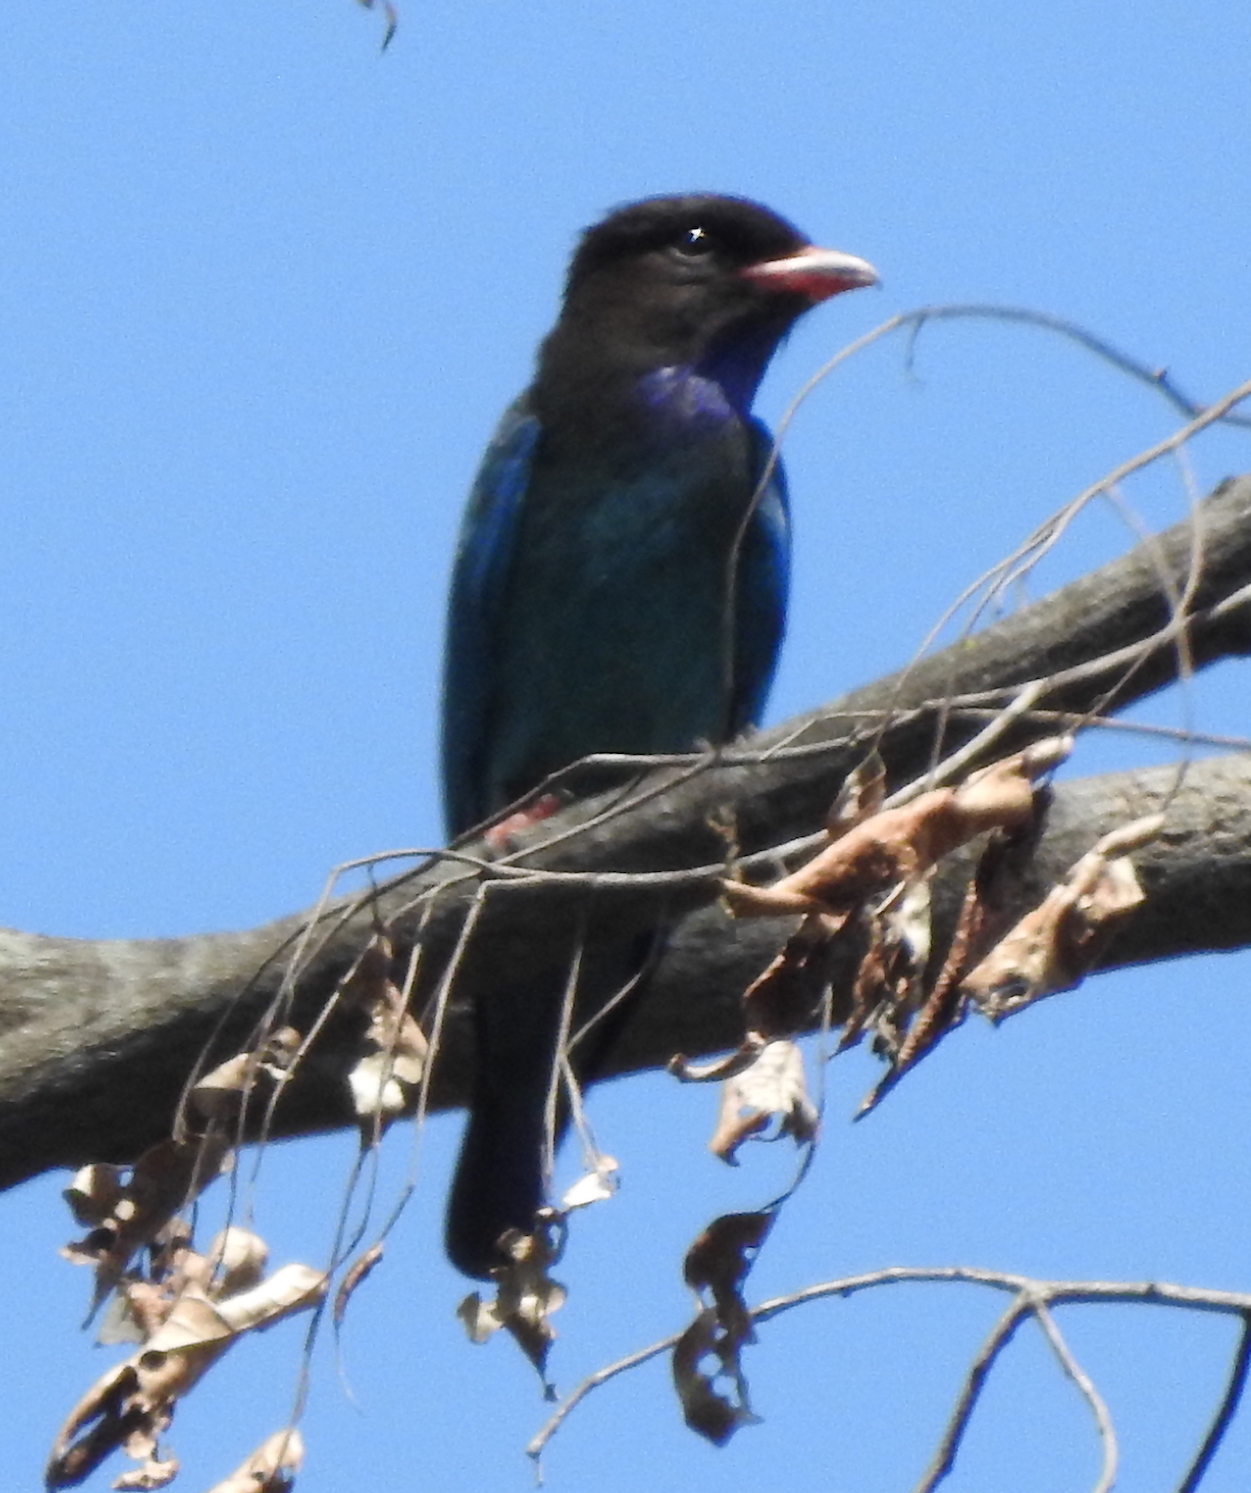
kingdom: Animalia
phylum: Chordata
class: Aves
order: Coraciiformes
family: Coraciidae
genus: Eurystomus
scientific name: Eurystomus orientalis
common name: Oriental dollarbird
